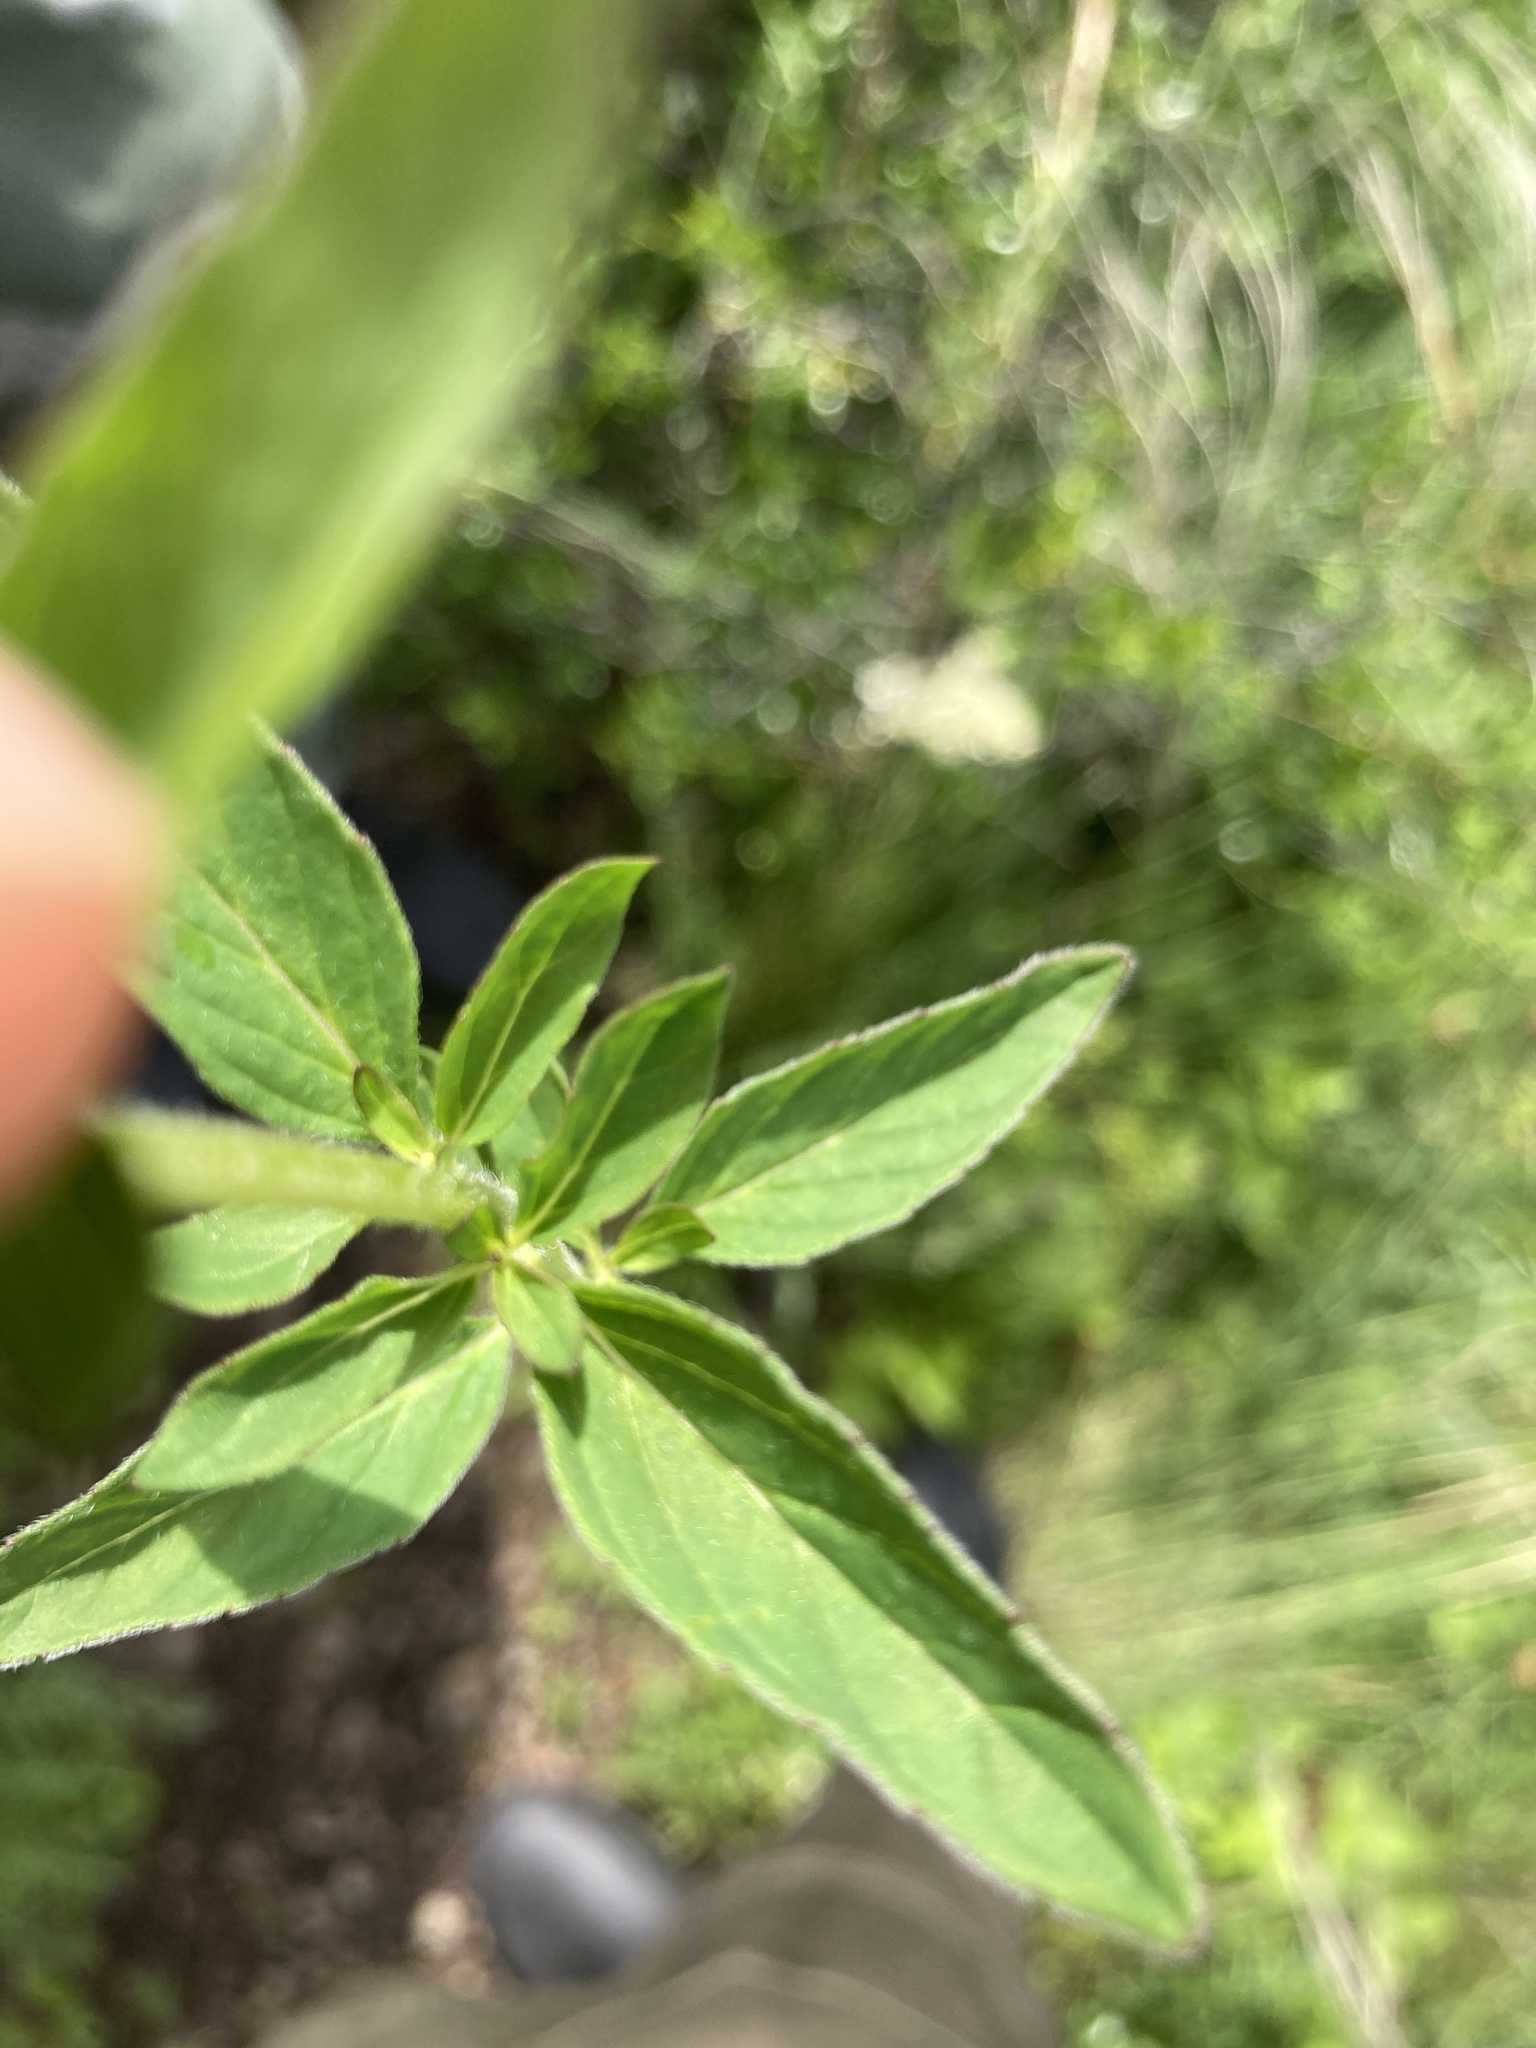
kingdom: Plantae
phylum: Tracheophyta
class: Magnoliopsida
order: Lamiales
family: Lamiaceae
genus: Origanum
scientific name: Origanum vulgare
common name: Wild marjoram
